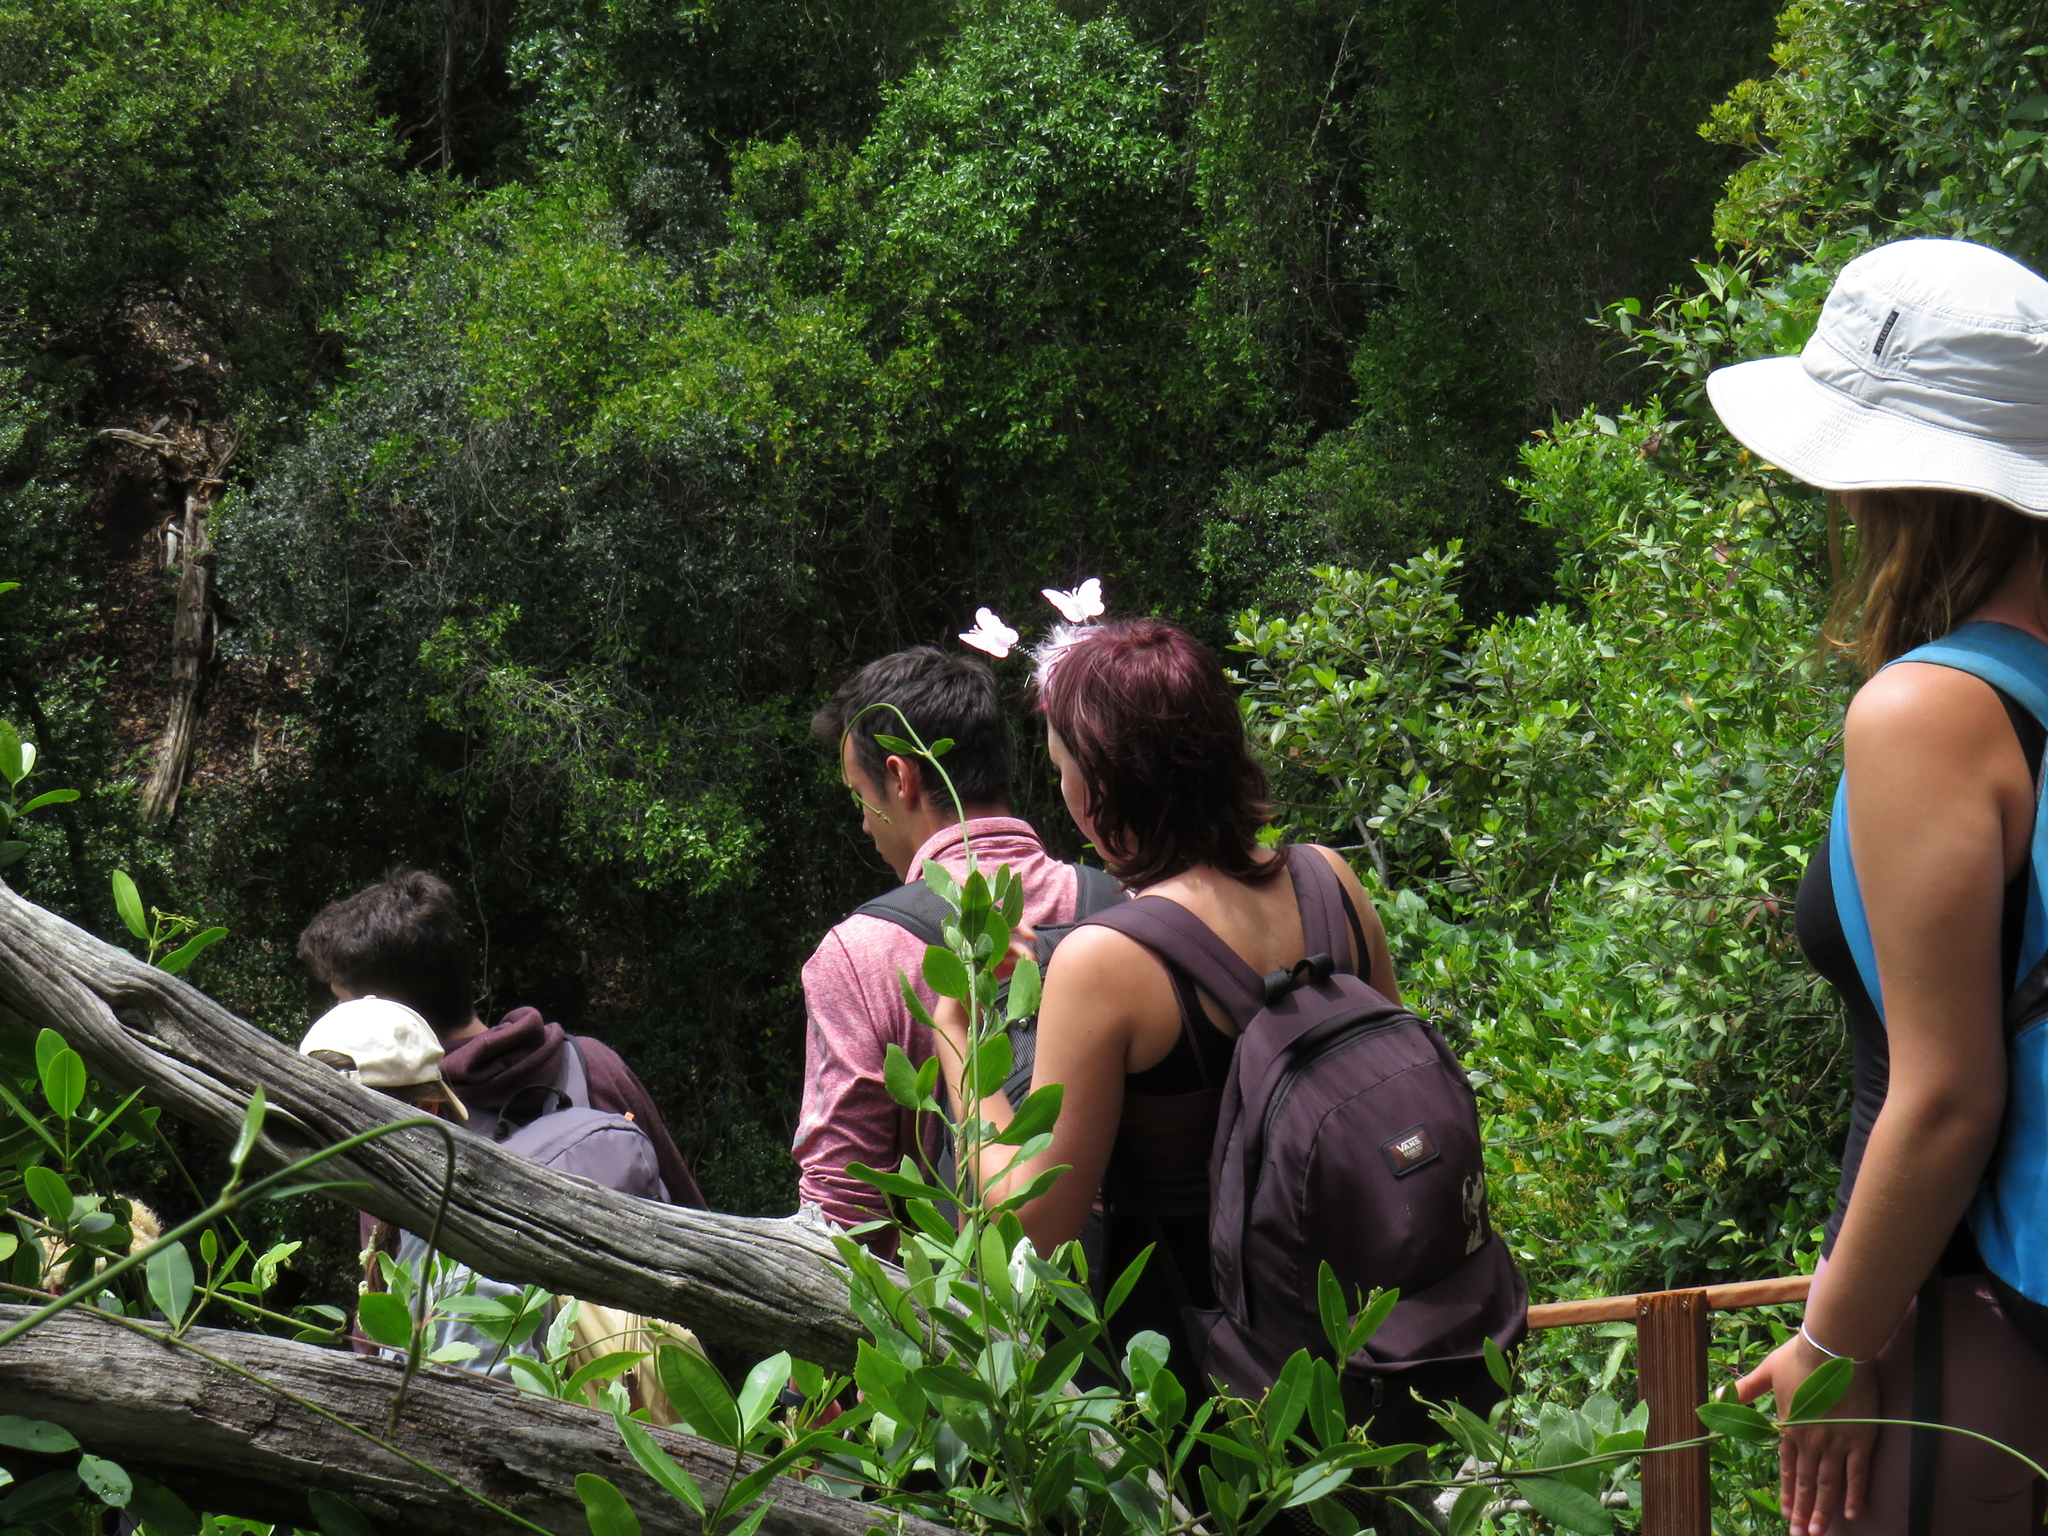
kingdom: Plantae
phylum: Tracheophyta
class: Magnoliopsida
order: Gentianales
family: Apocynaceae
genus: Secamone
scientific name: Secamone alpini
